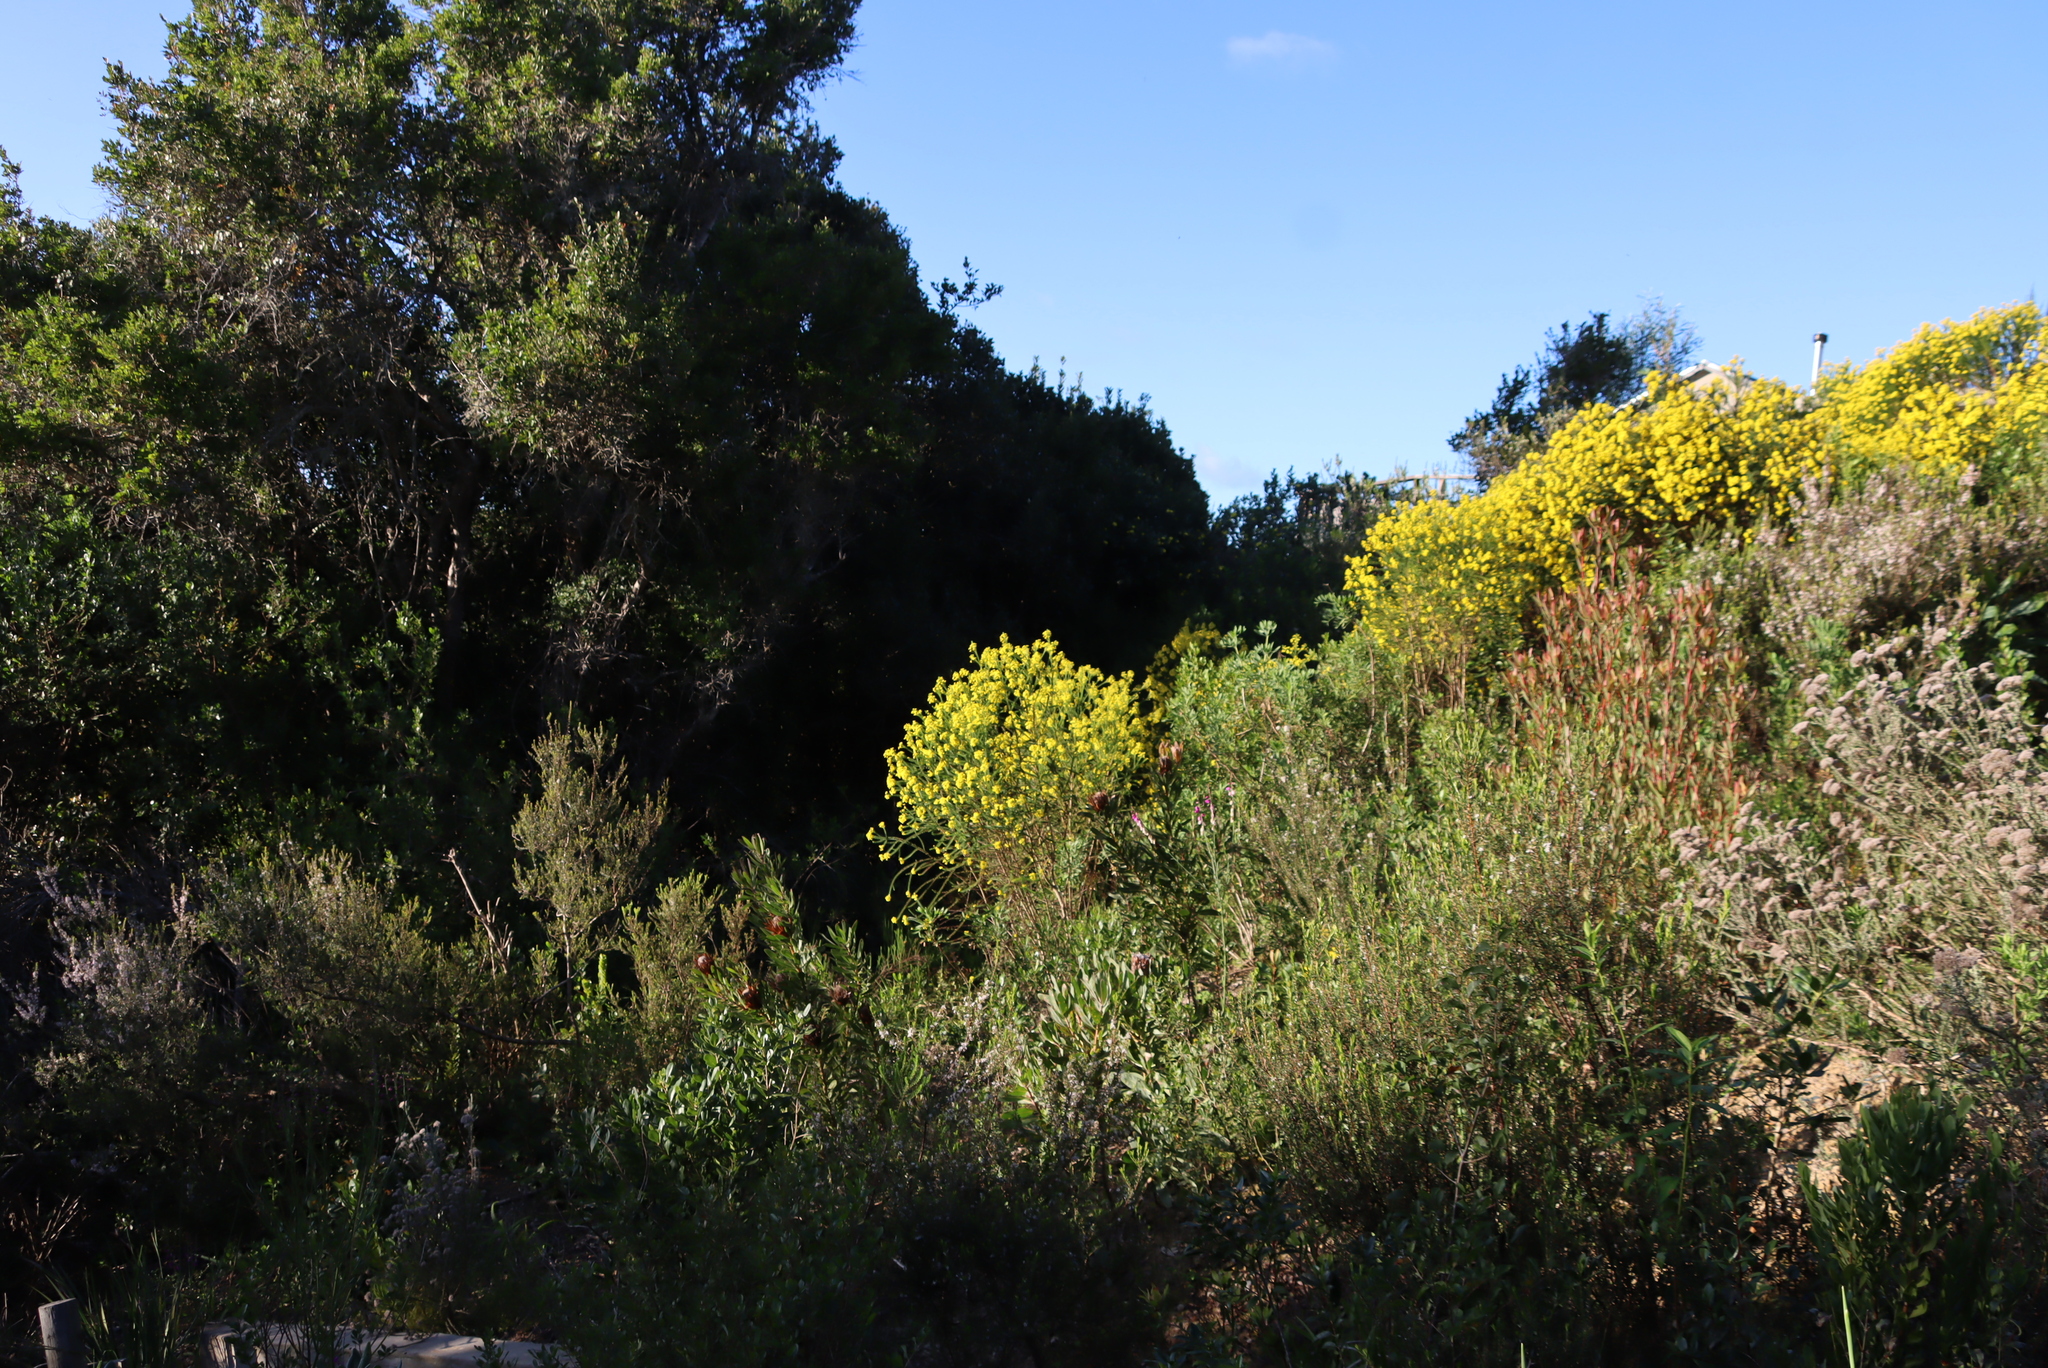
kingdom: Plantae
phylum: Tracheophyta
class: Magnoliopsida
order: Asterales
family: Asteraceae
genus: Euryops
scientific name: Euryops virgineus
